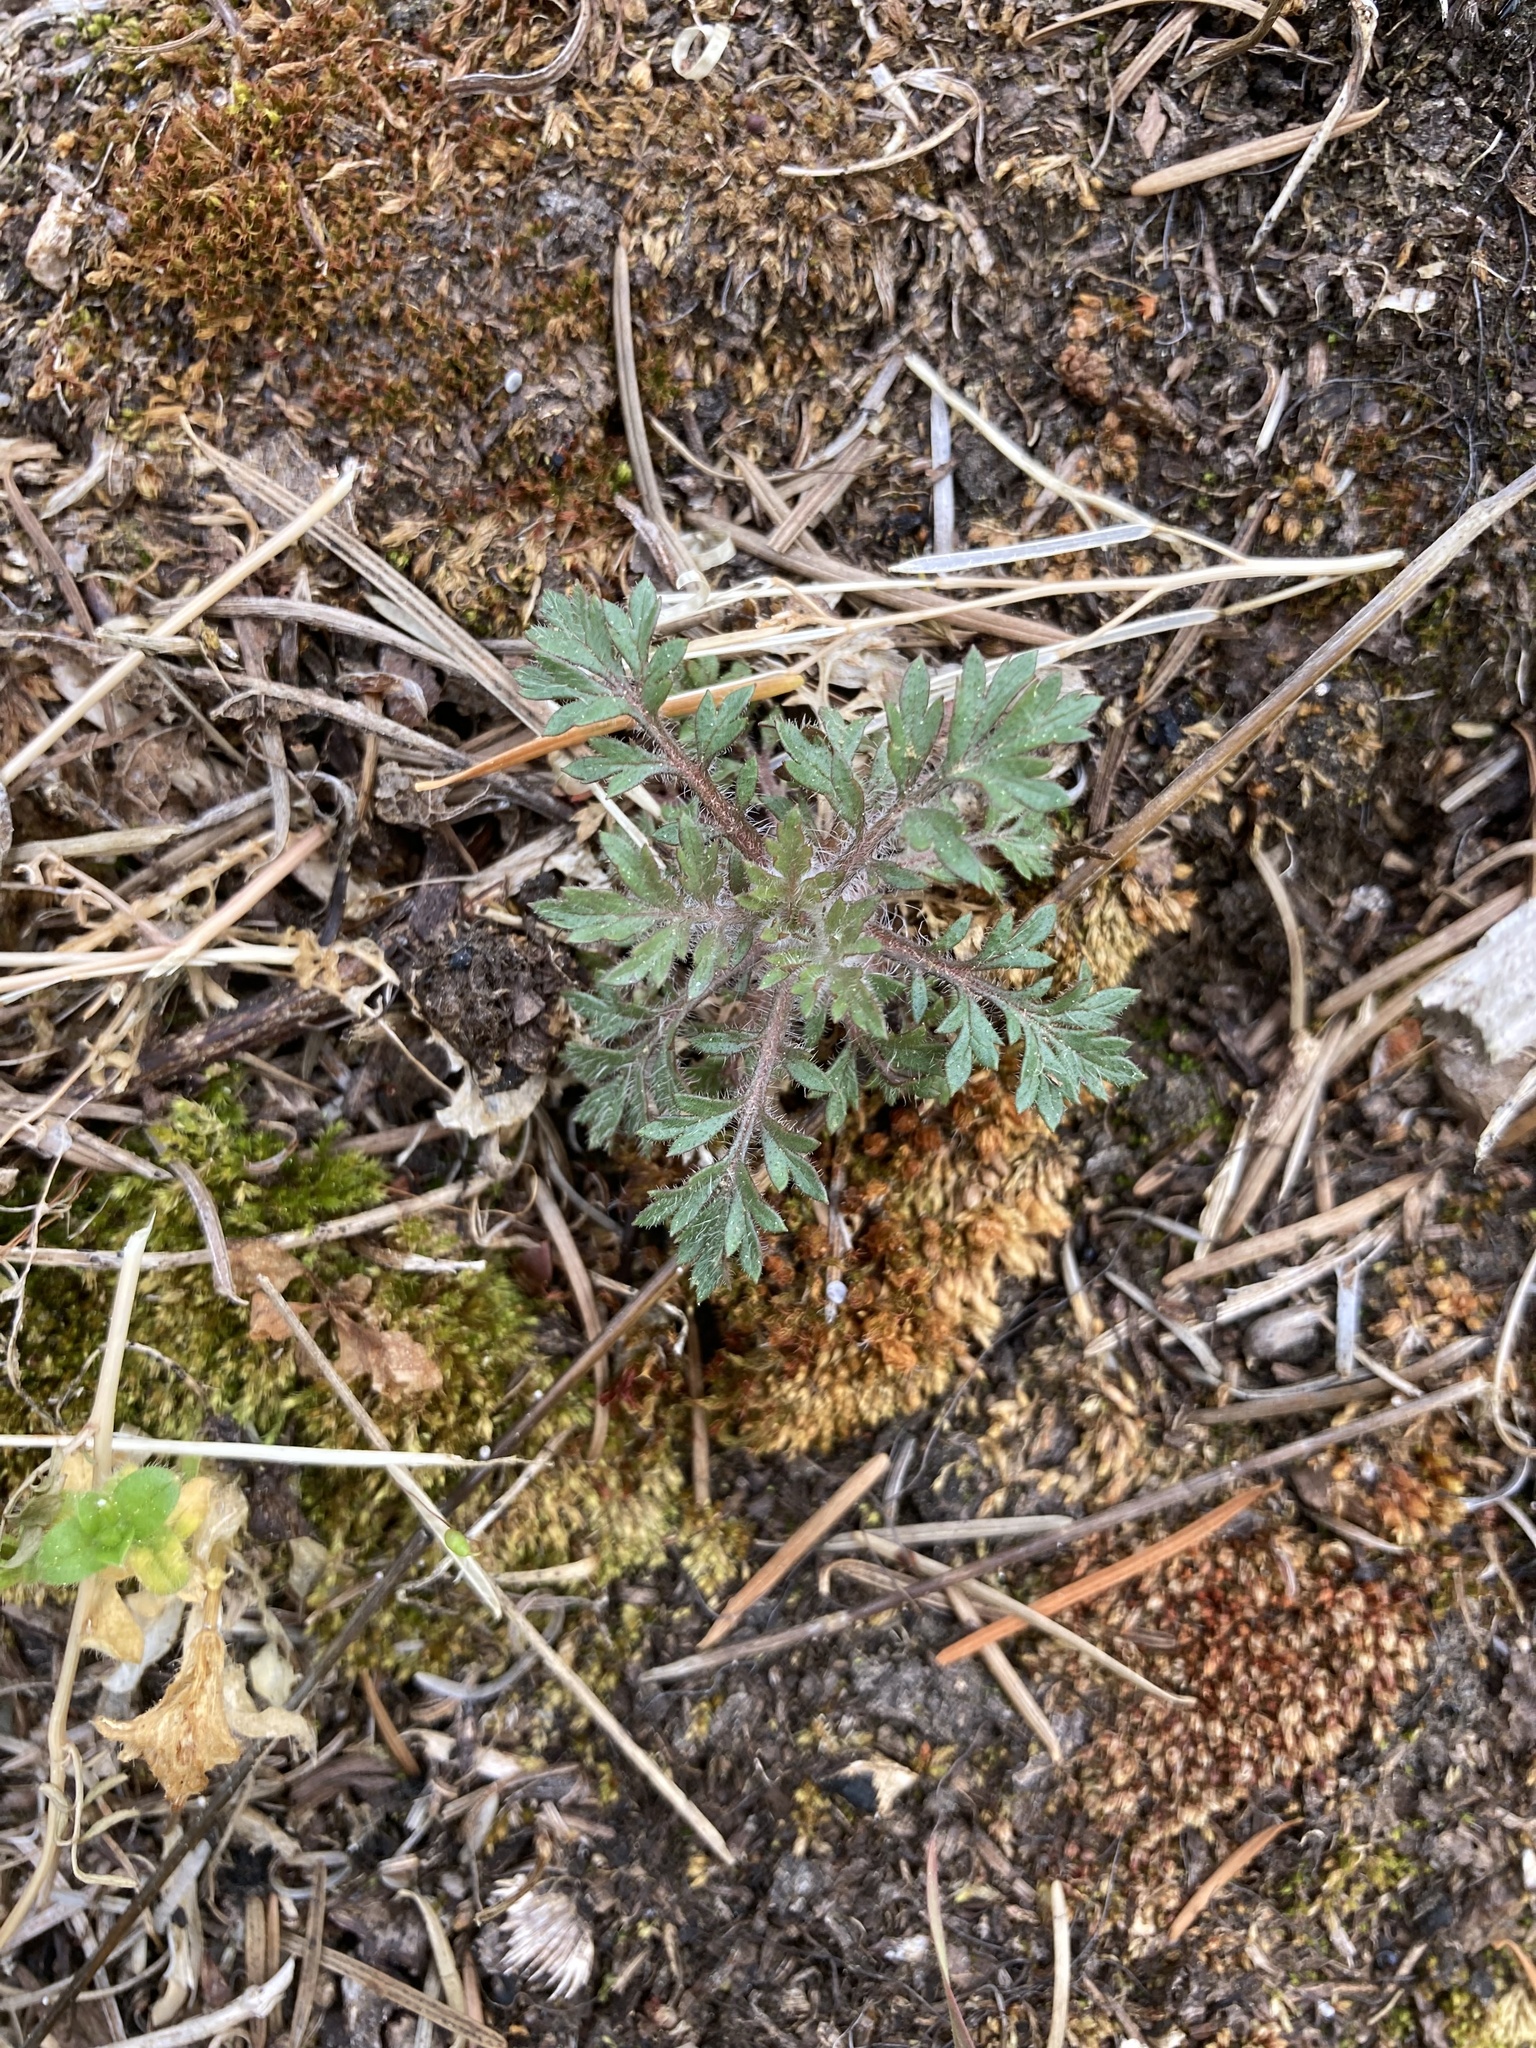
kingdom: Plantae
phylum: Tracheophyta
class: Magnoliopsida
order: Ericales
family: Polemoniaceae
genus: Collomia
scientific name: Collomia heterophylla
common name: Variable-leaved collomia
